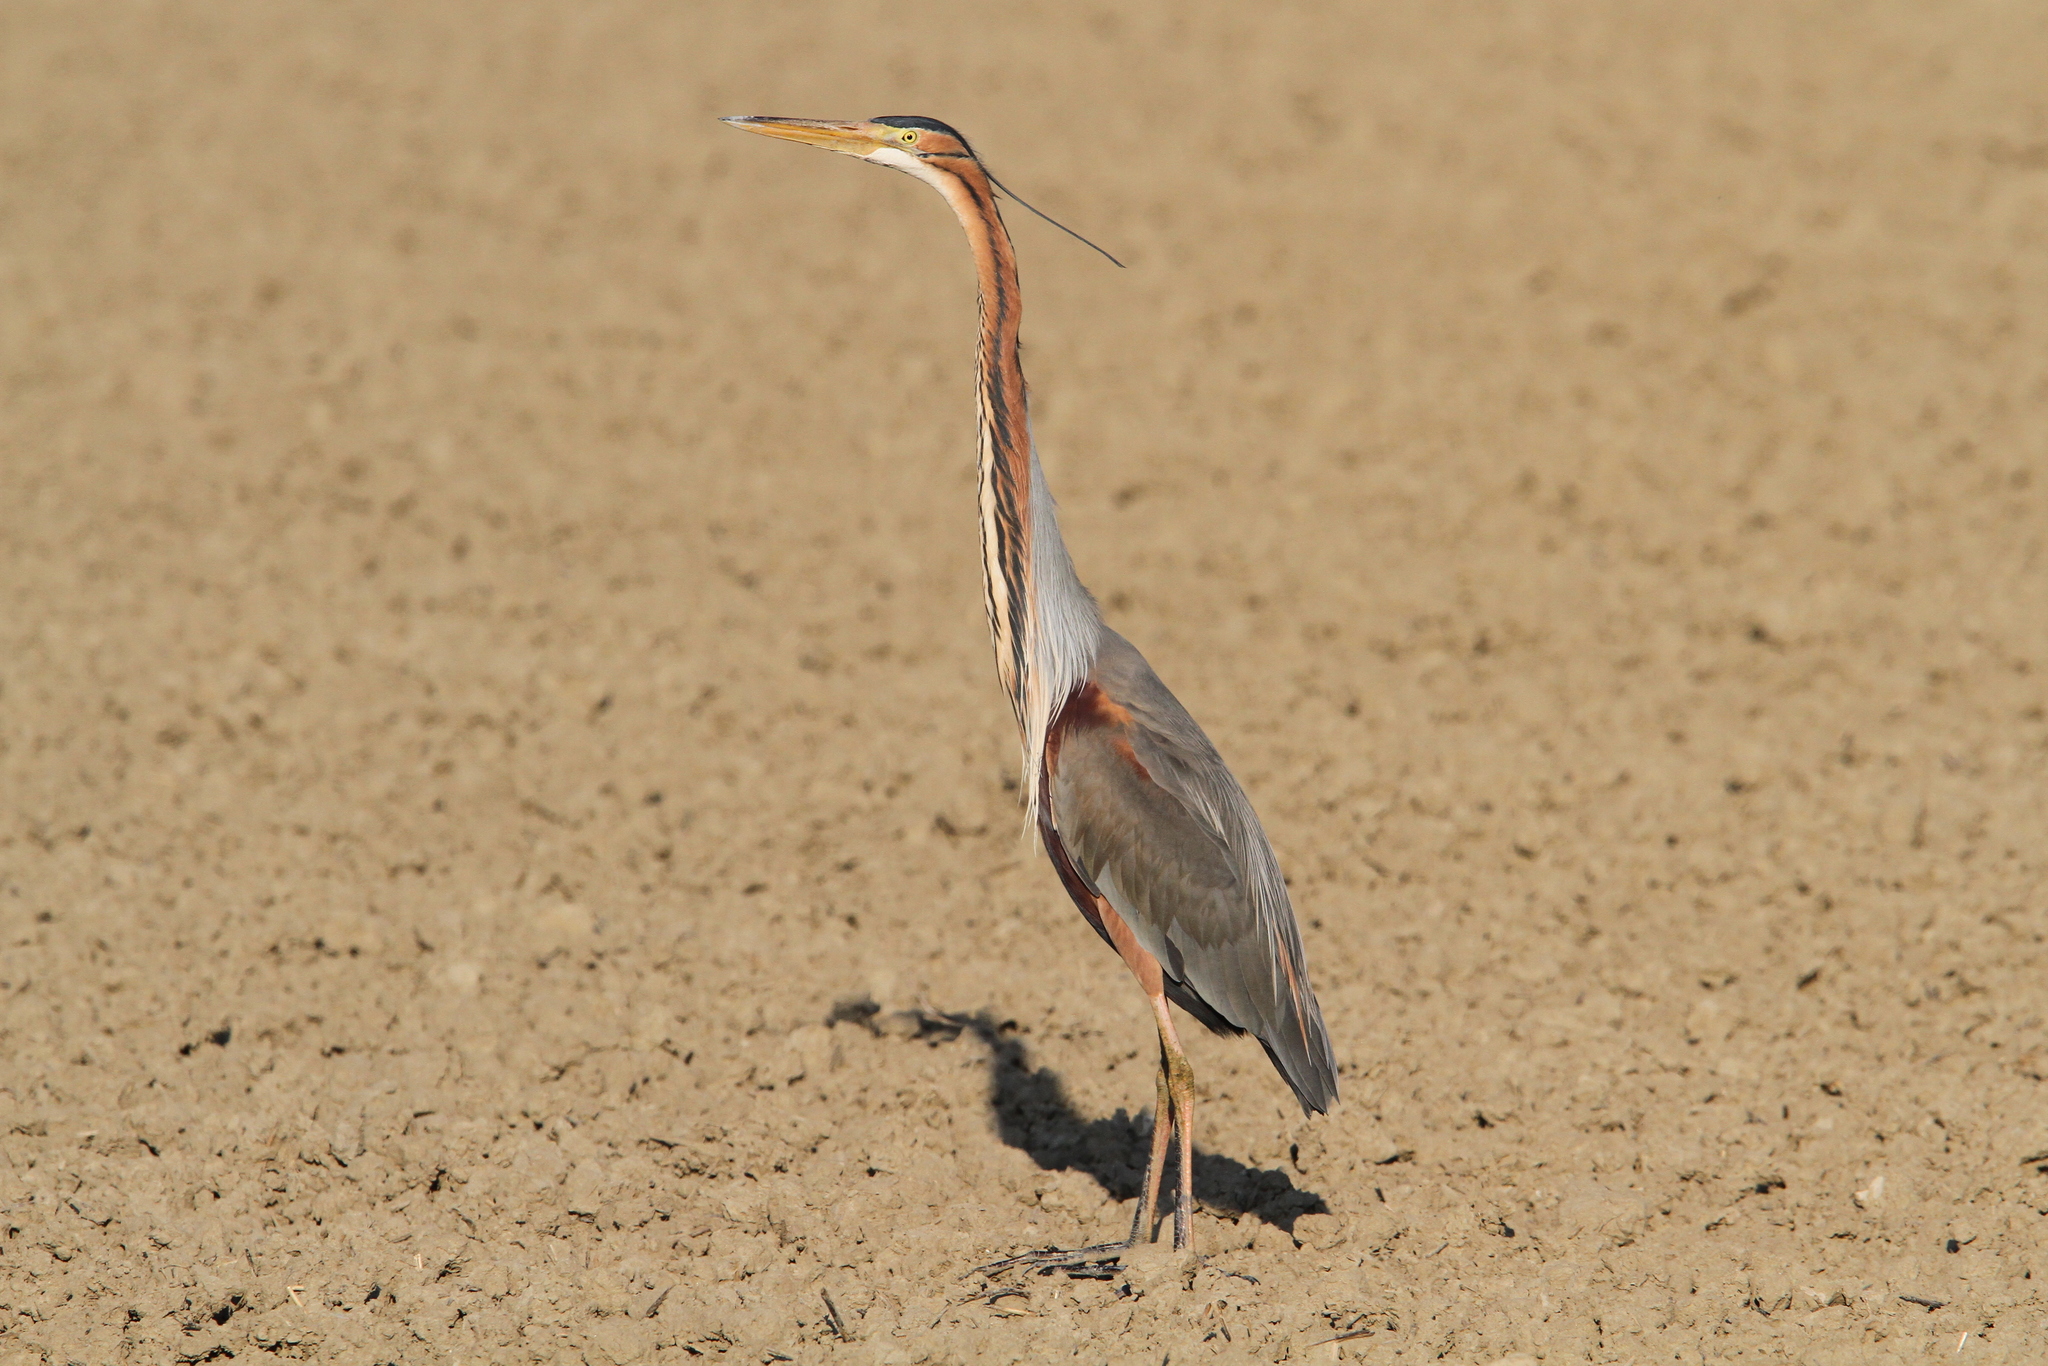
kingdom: Animalia
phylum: Chordata
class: Aves
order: Pelecaniformes
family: Ardeidae
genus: Ardea
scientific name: Ardea purpurea
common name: Purple heron
